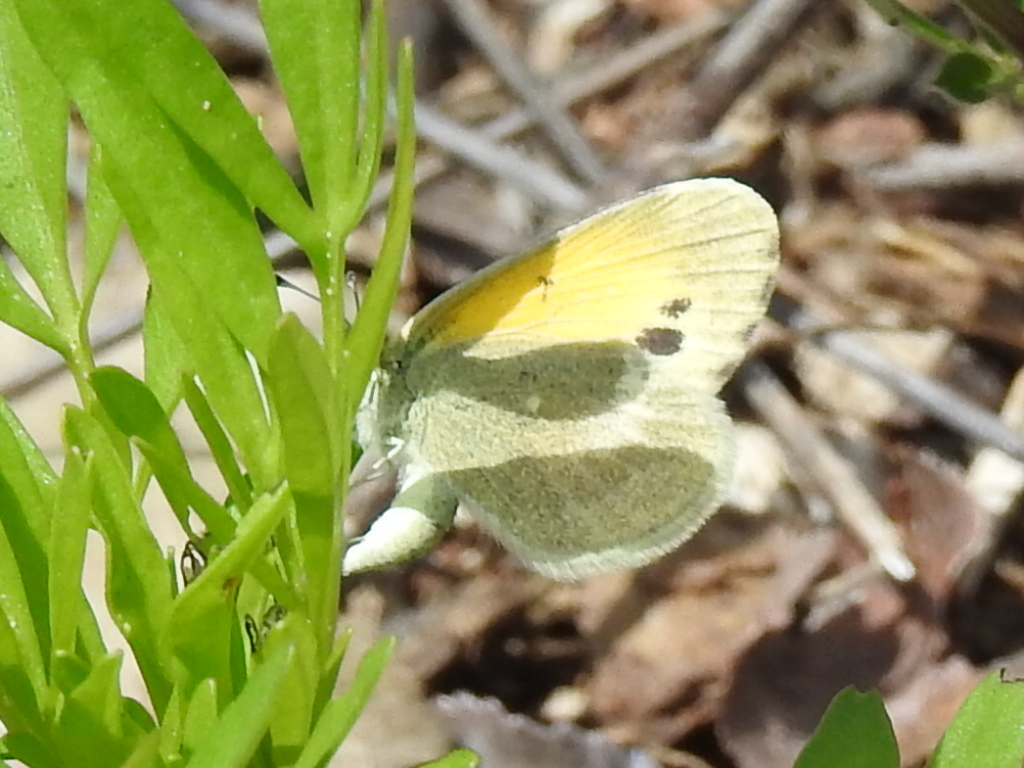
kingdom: Animalia
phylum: Arthropoda
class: Insecta
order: Lepidoptera
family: Pieridae
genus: Nathalis
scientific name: Nathalis iole
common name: Dainty sulphur
